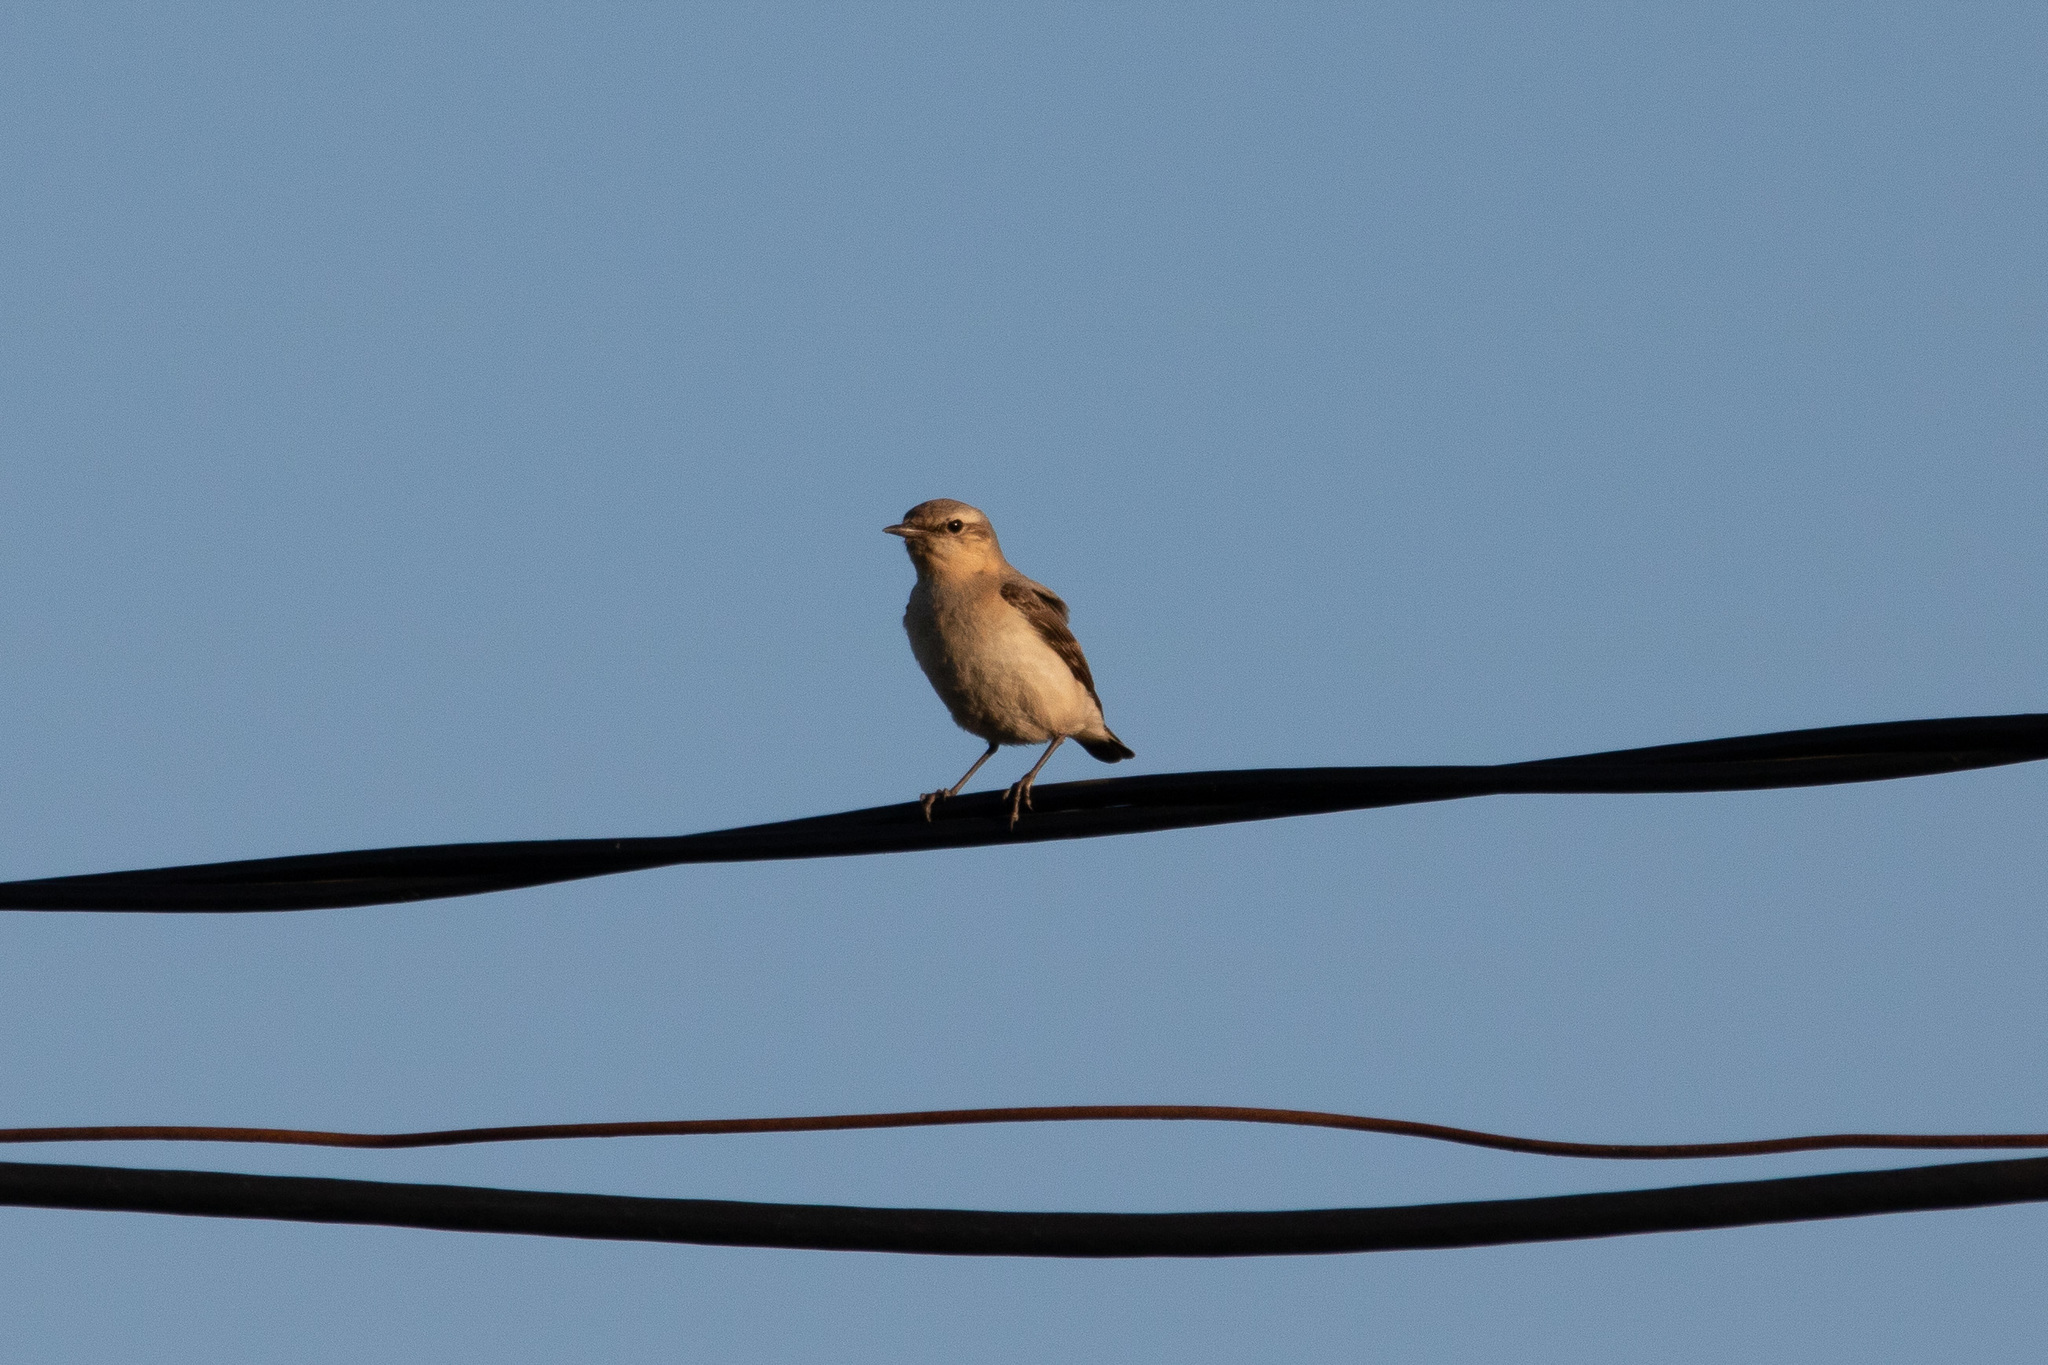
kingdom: Animalia
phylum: Chordata
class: Aves
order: Passeriformes
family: Muscicapidae
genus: Oenanthe
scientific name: Oenanthe oenanthe
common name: Northern wheatear
